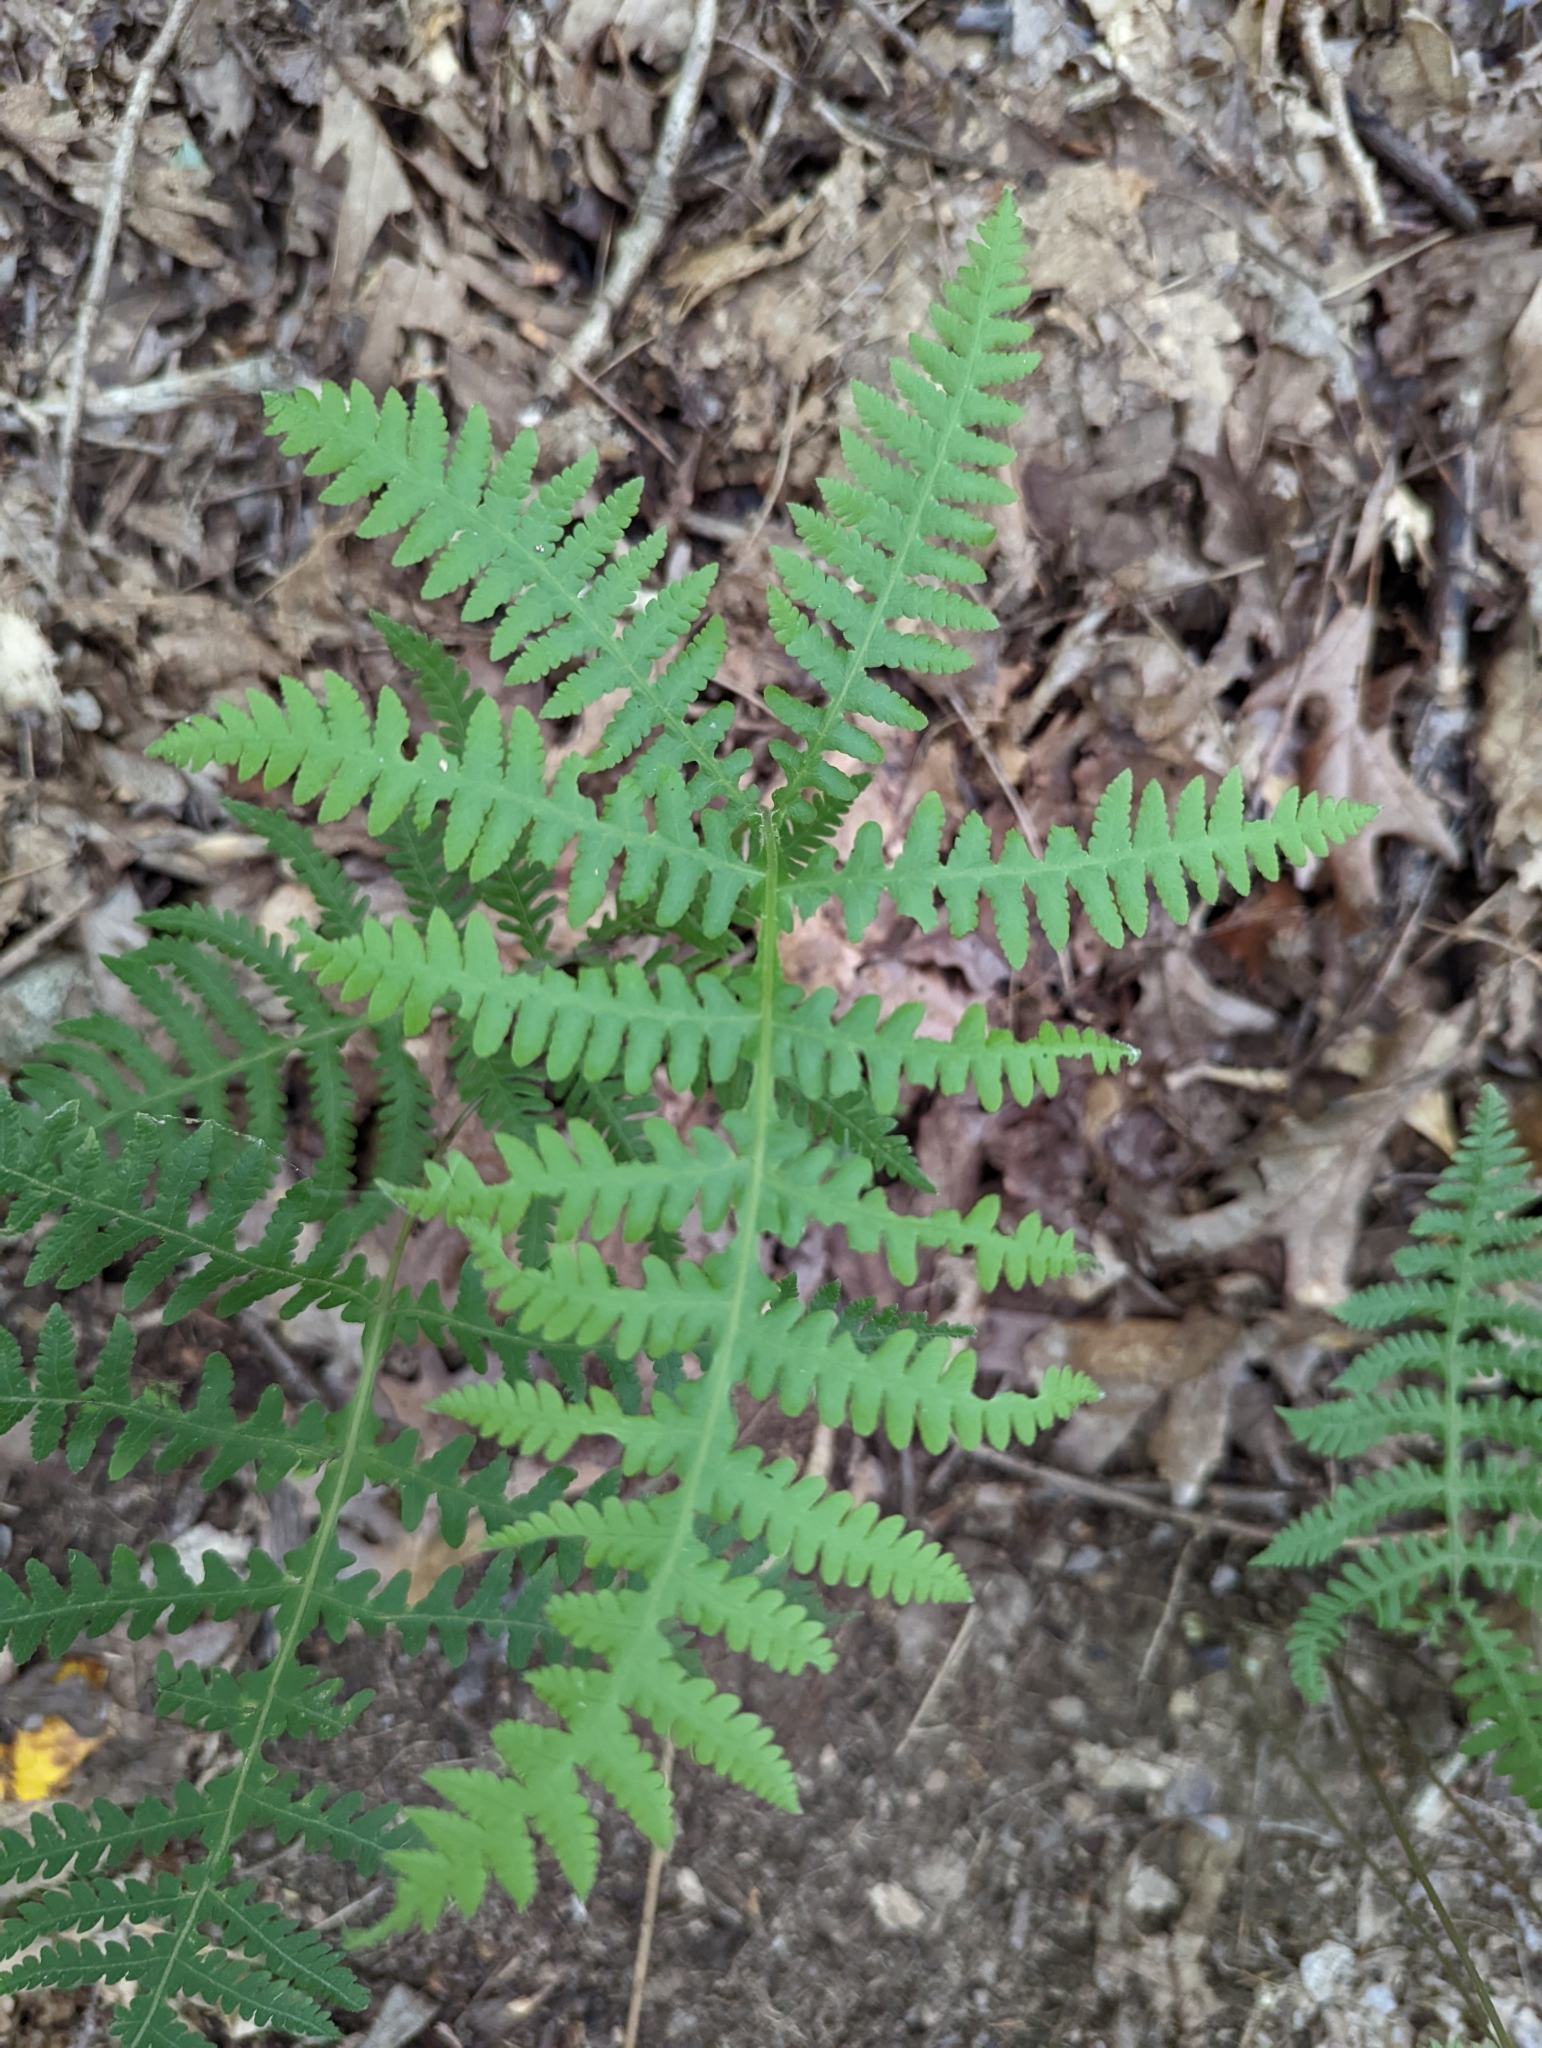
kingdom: Plantae
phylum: Tracheophyta
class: Polypodiopsida
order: Polypodiales
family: Thelypteridaceae
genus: Phegopteris
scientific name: Phegopteris hexagonoptera
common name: Broad beech fern
